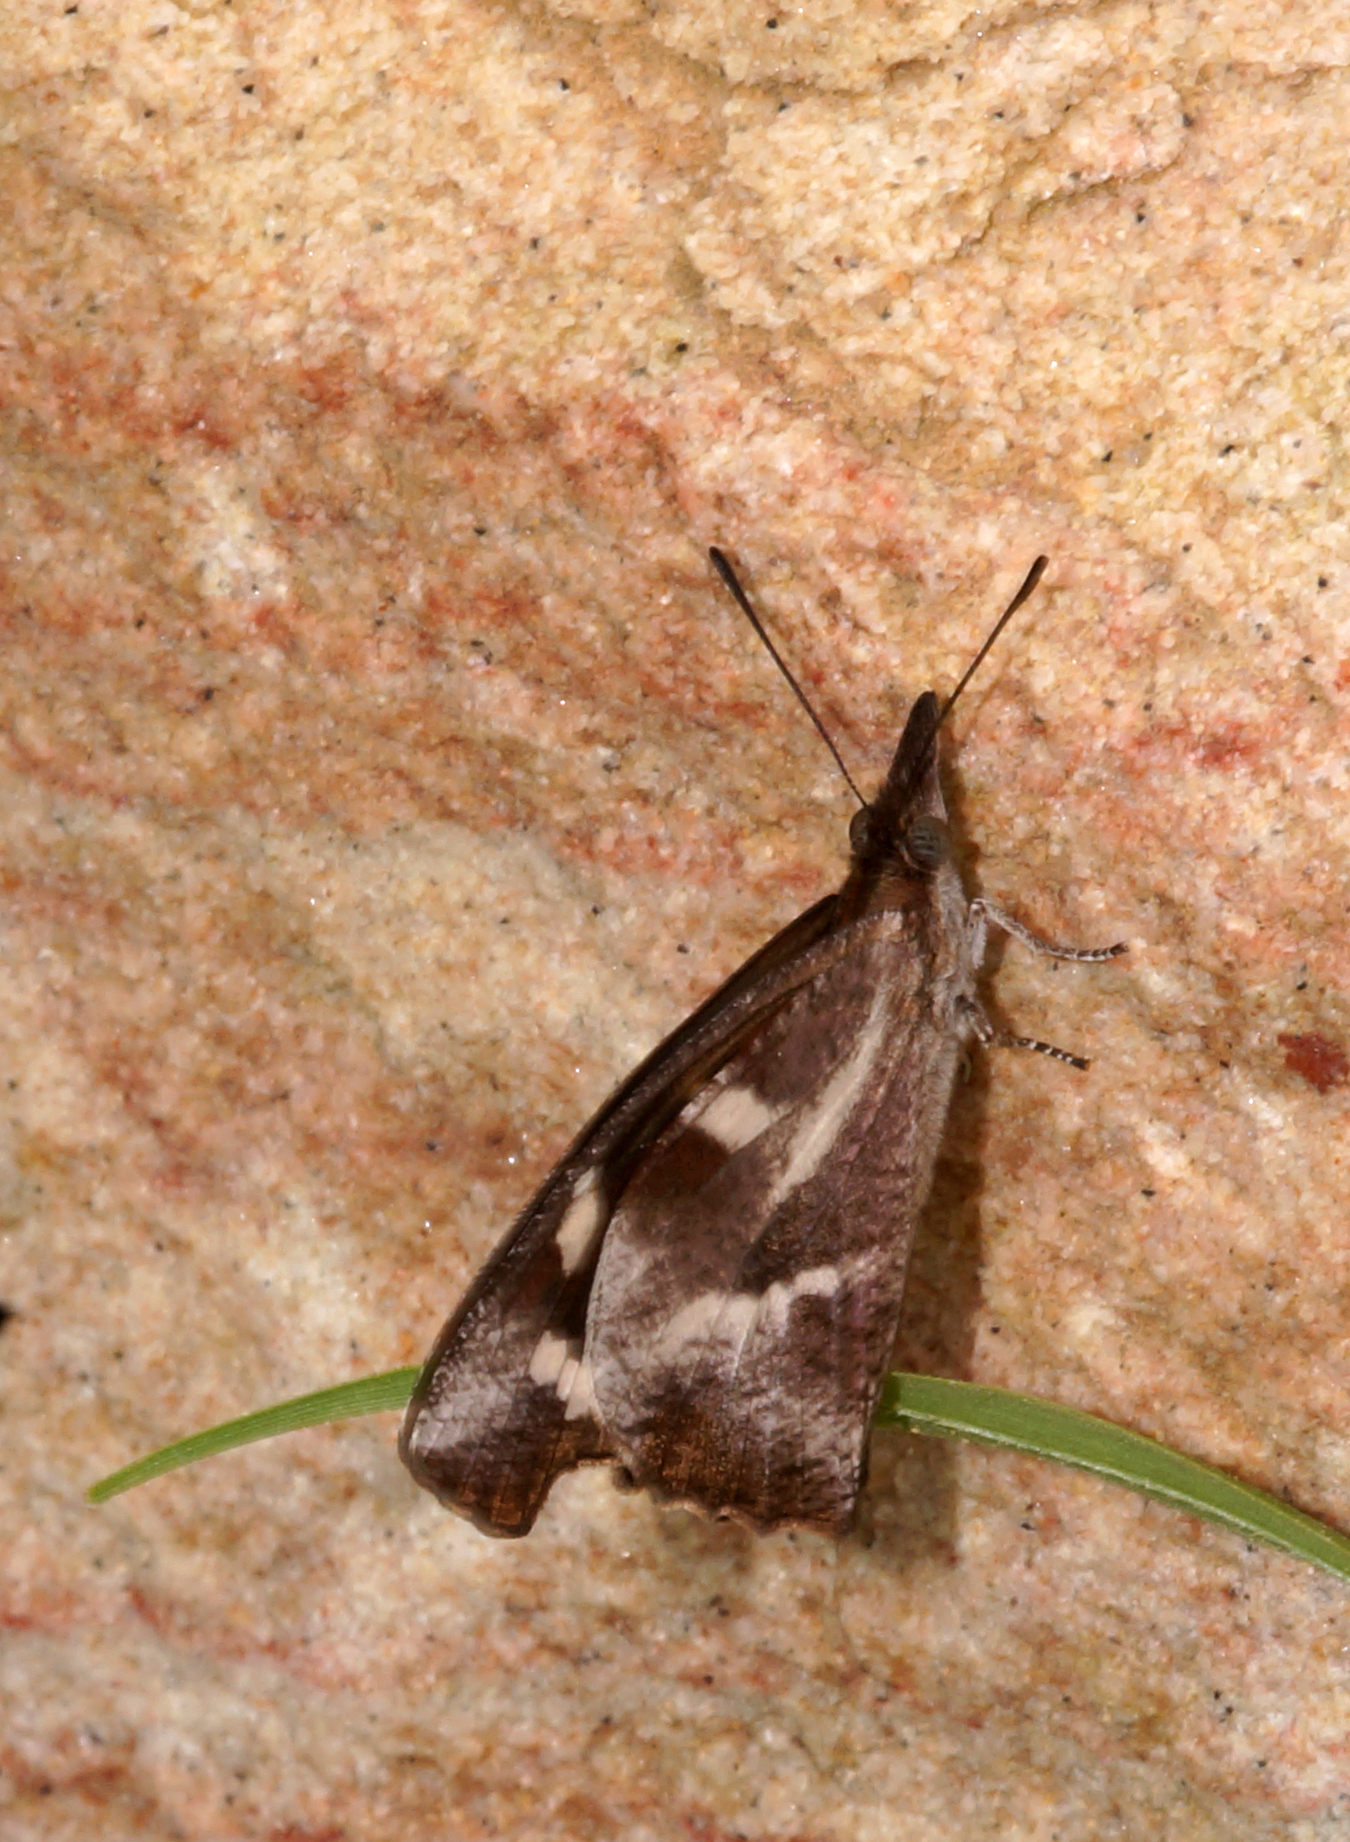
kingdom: Animalia
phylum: Arthropoda
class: Insecta
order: Lepidoptera
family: Nymphalidae
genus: Libythea
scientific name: Libythea narina
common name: Whitespotted beak
